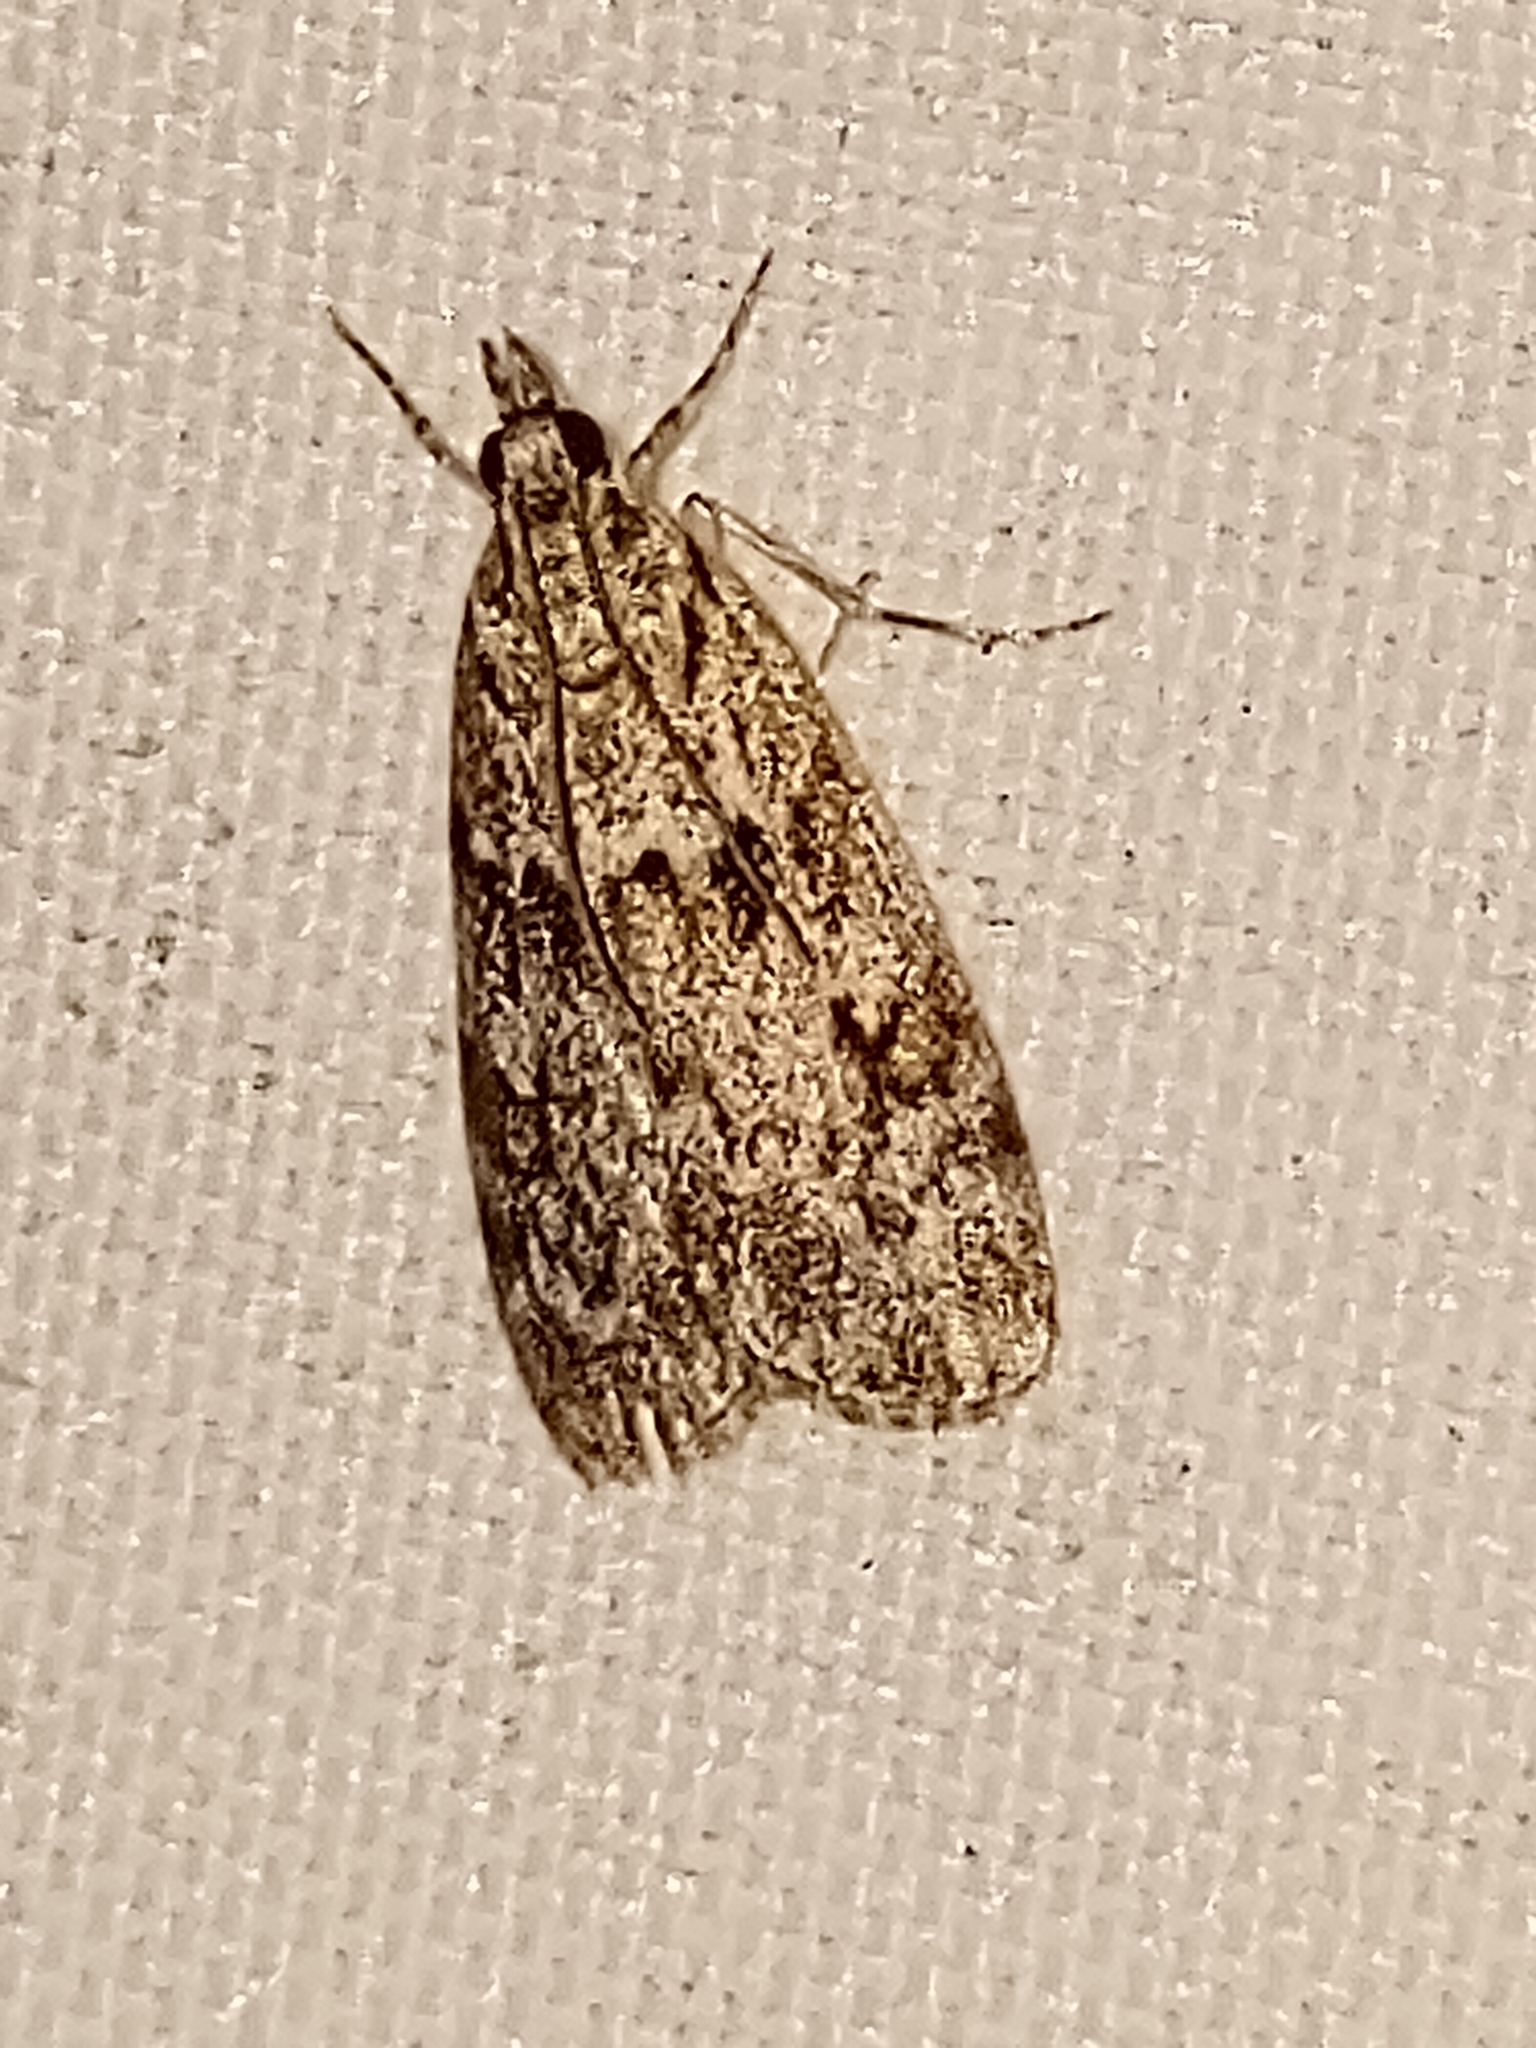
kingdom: Animalia
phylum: Arthropoda
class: Insecta
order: Lepidoptera
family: Crambidae
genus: Eudonia
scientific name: Eudonia mercurella
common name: Small grey
